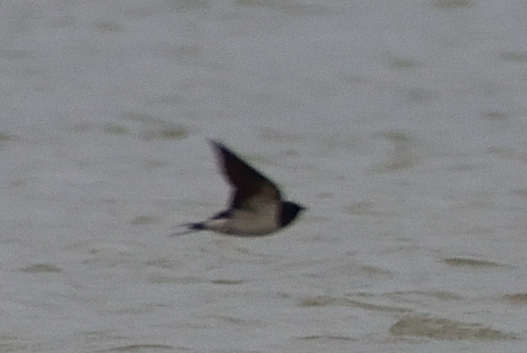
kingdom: Animalia
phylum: Chordata
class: Aves
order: Passeriformes
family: Hirundinidae
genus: Hirundo
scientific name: Hirundo rustica
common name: Barn swallow
